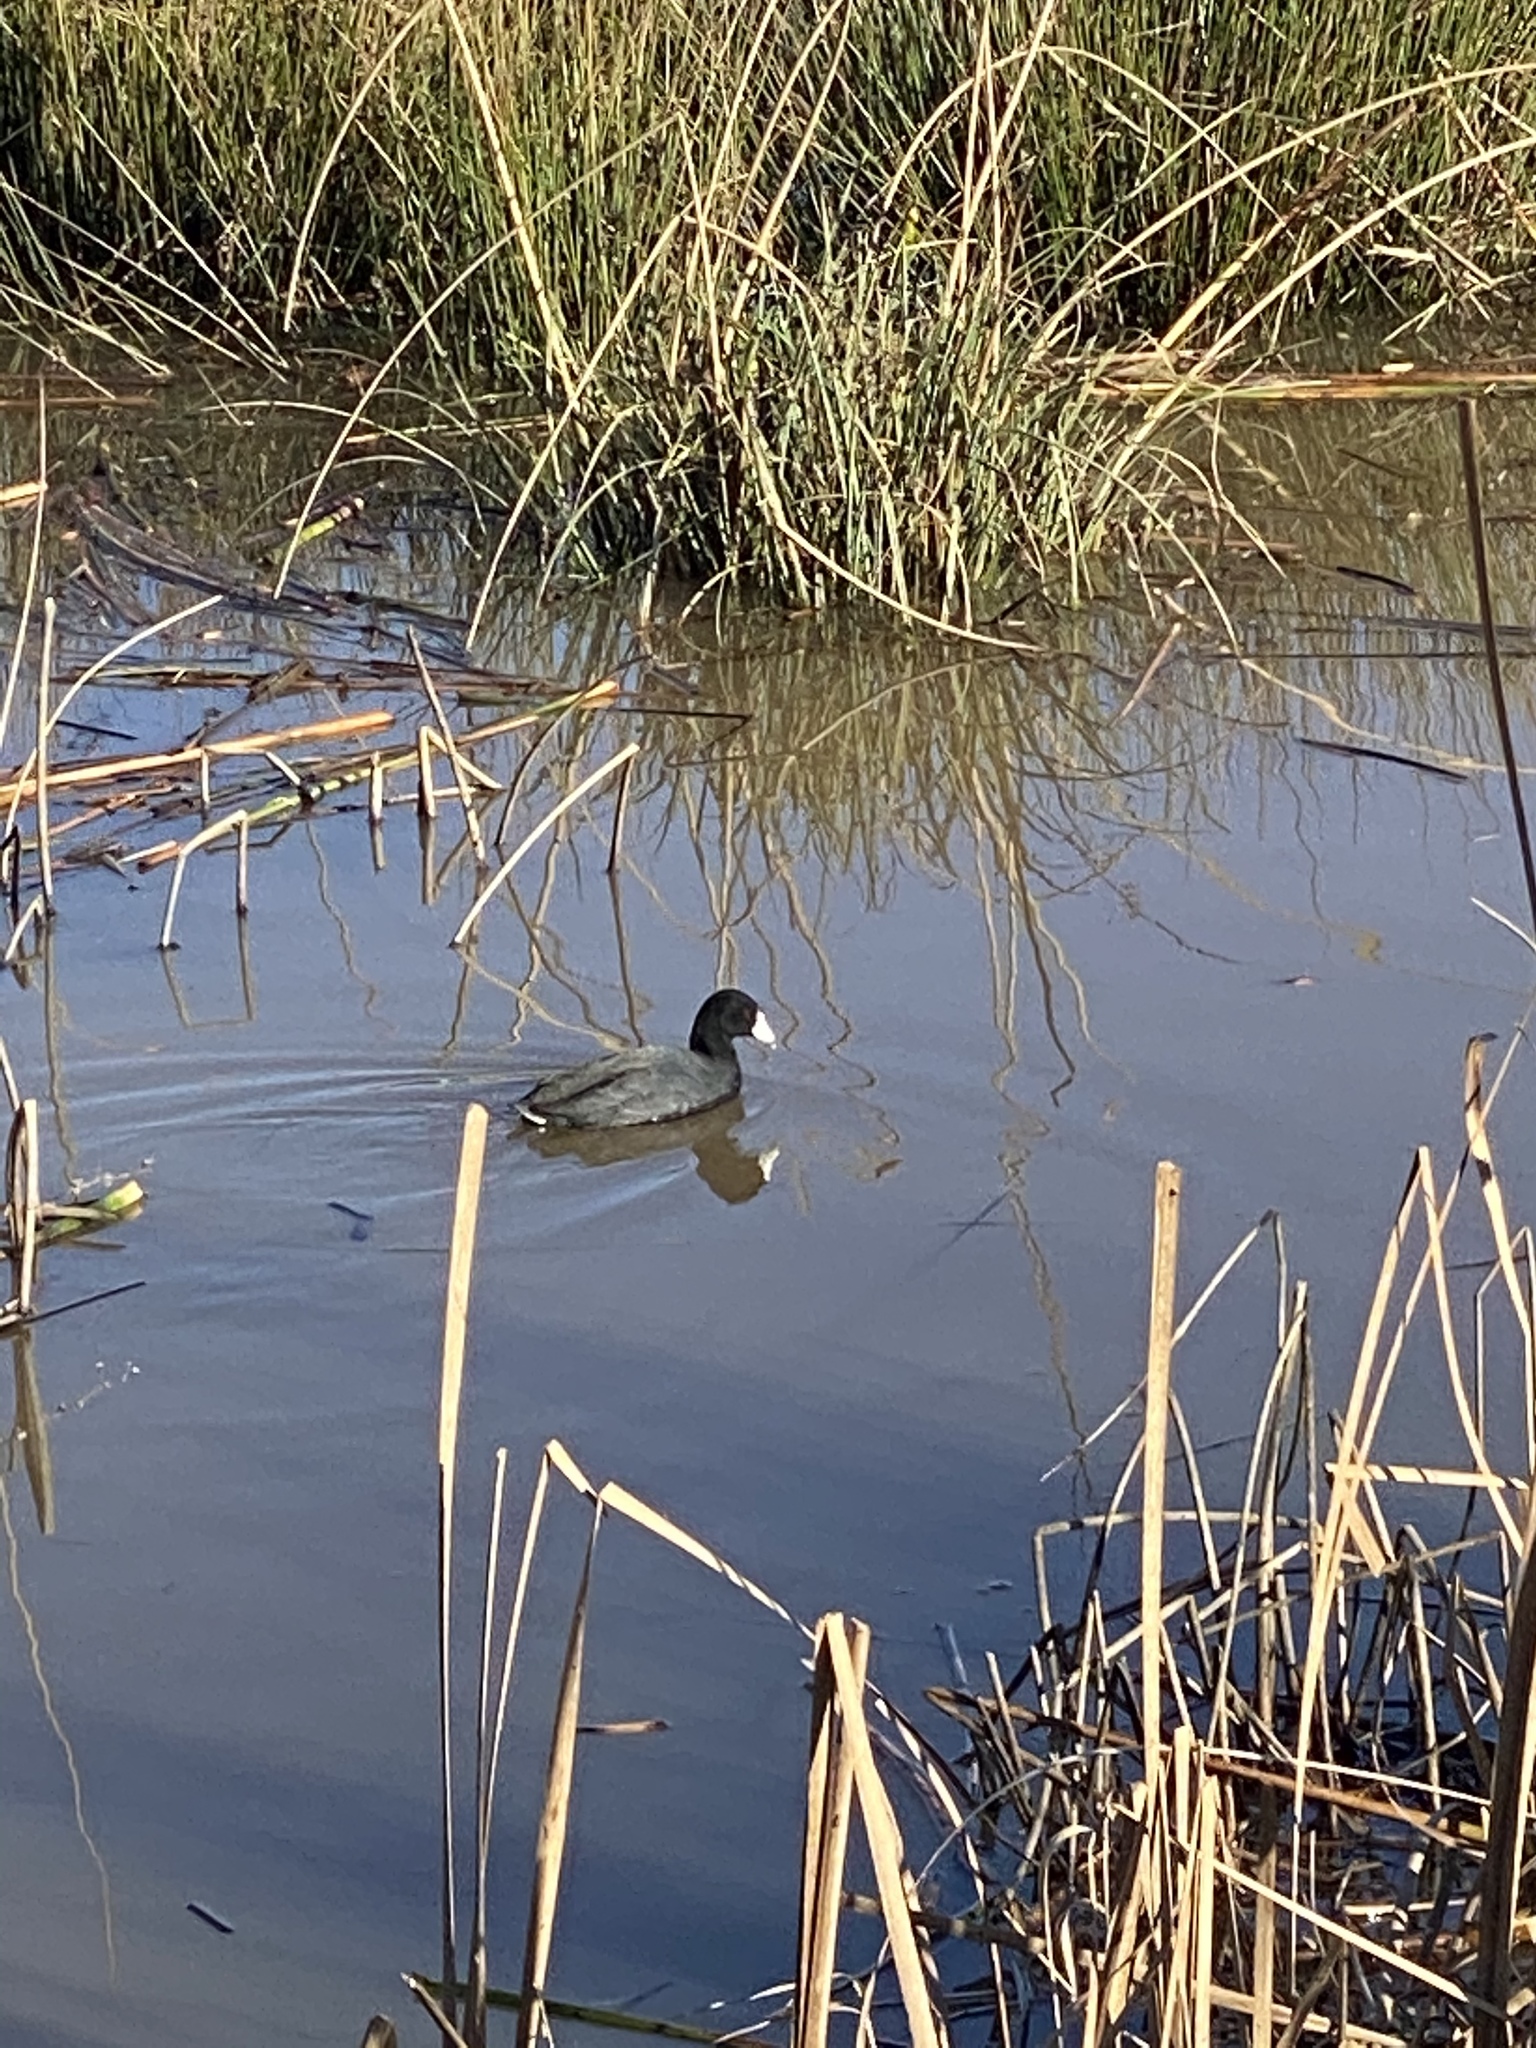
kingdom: Animalia
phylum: Chordata
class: Aves
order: Gruiformes
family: Rallidae
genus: Fulica
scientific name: Fulica americana
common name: American coot
